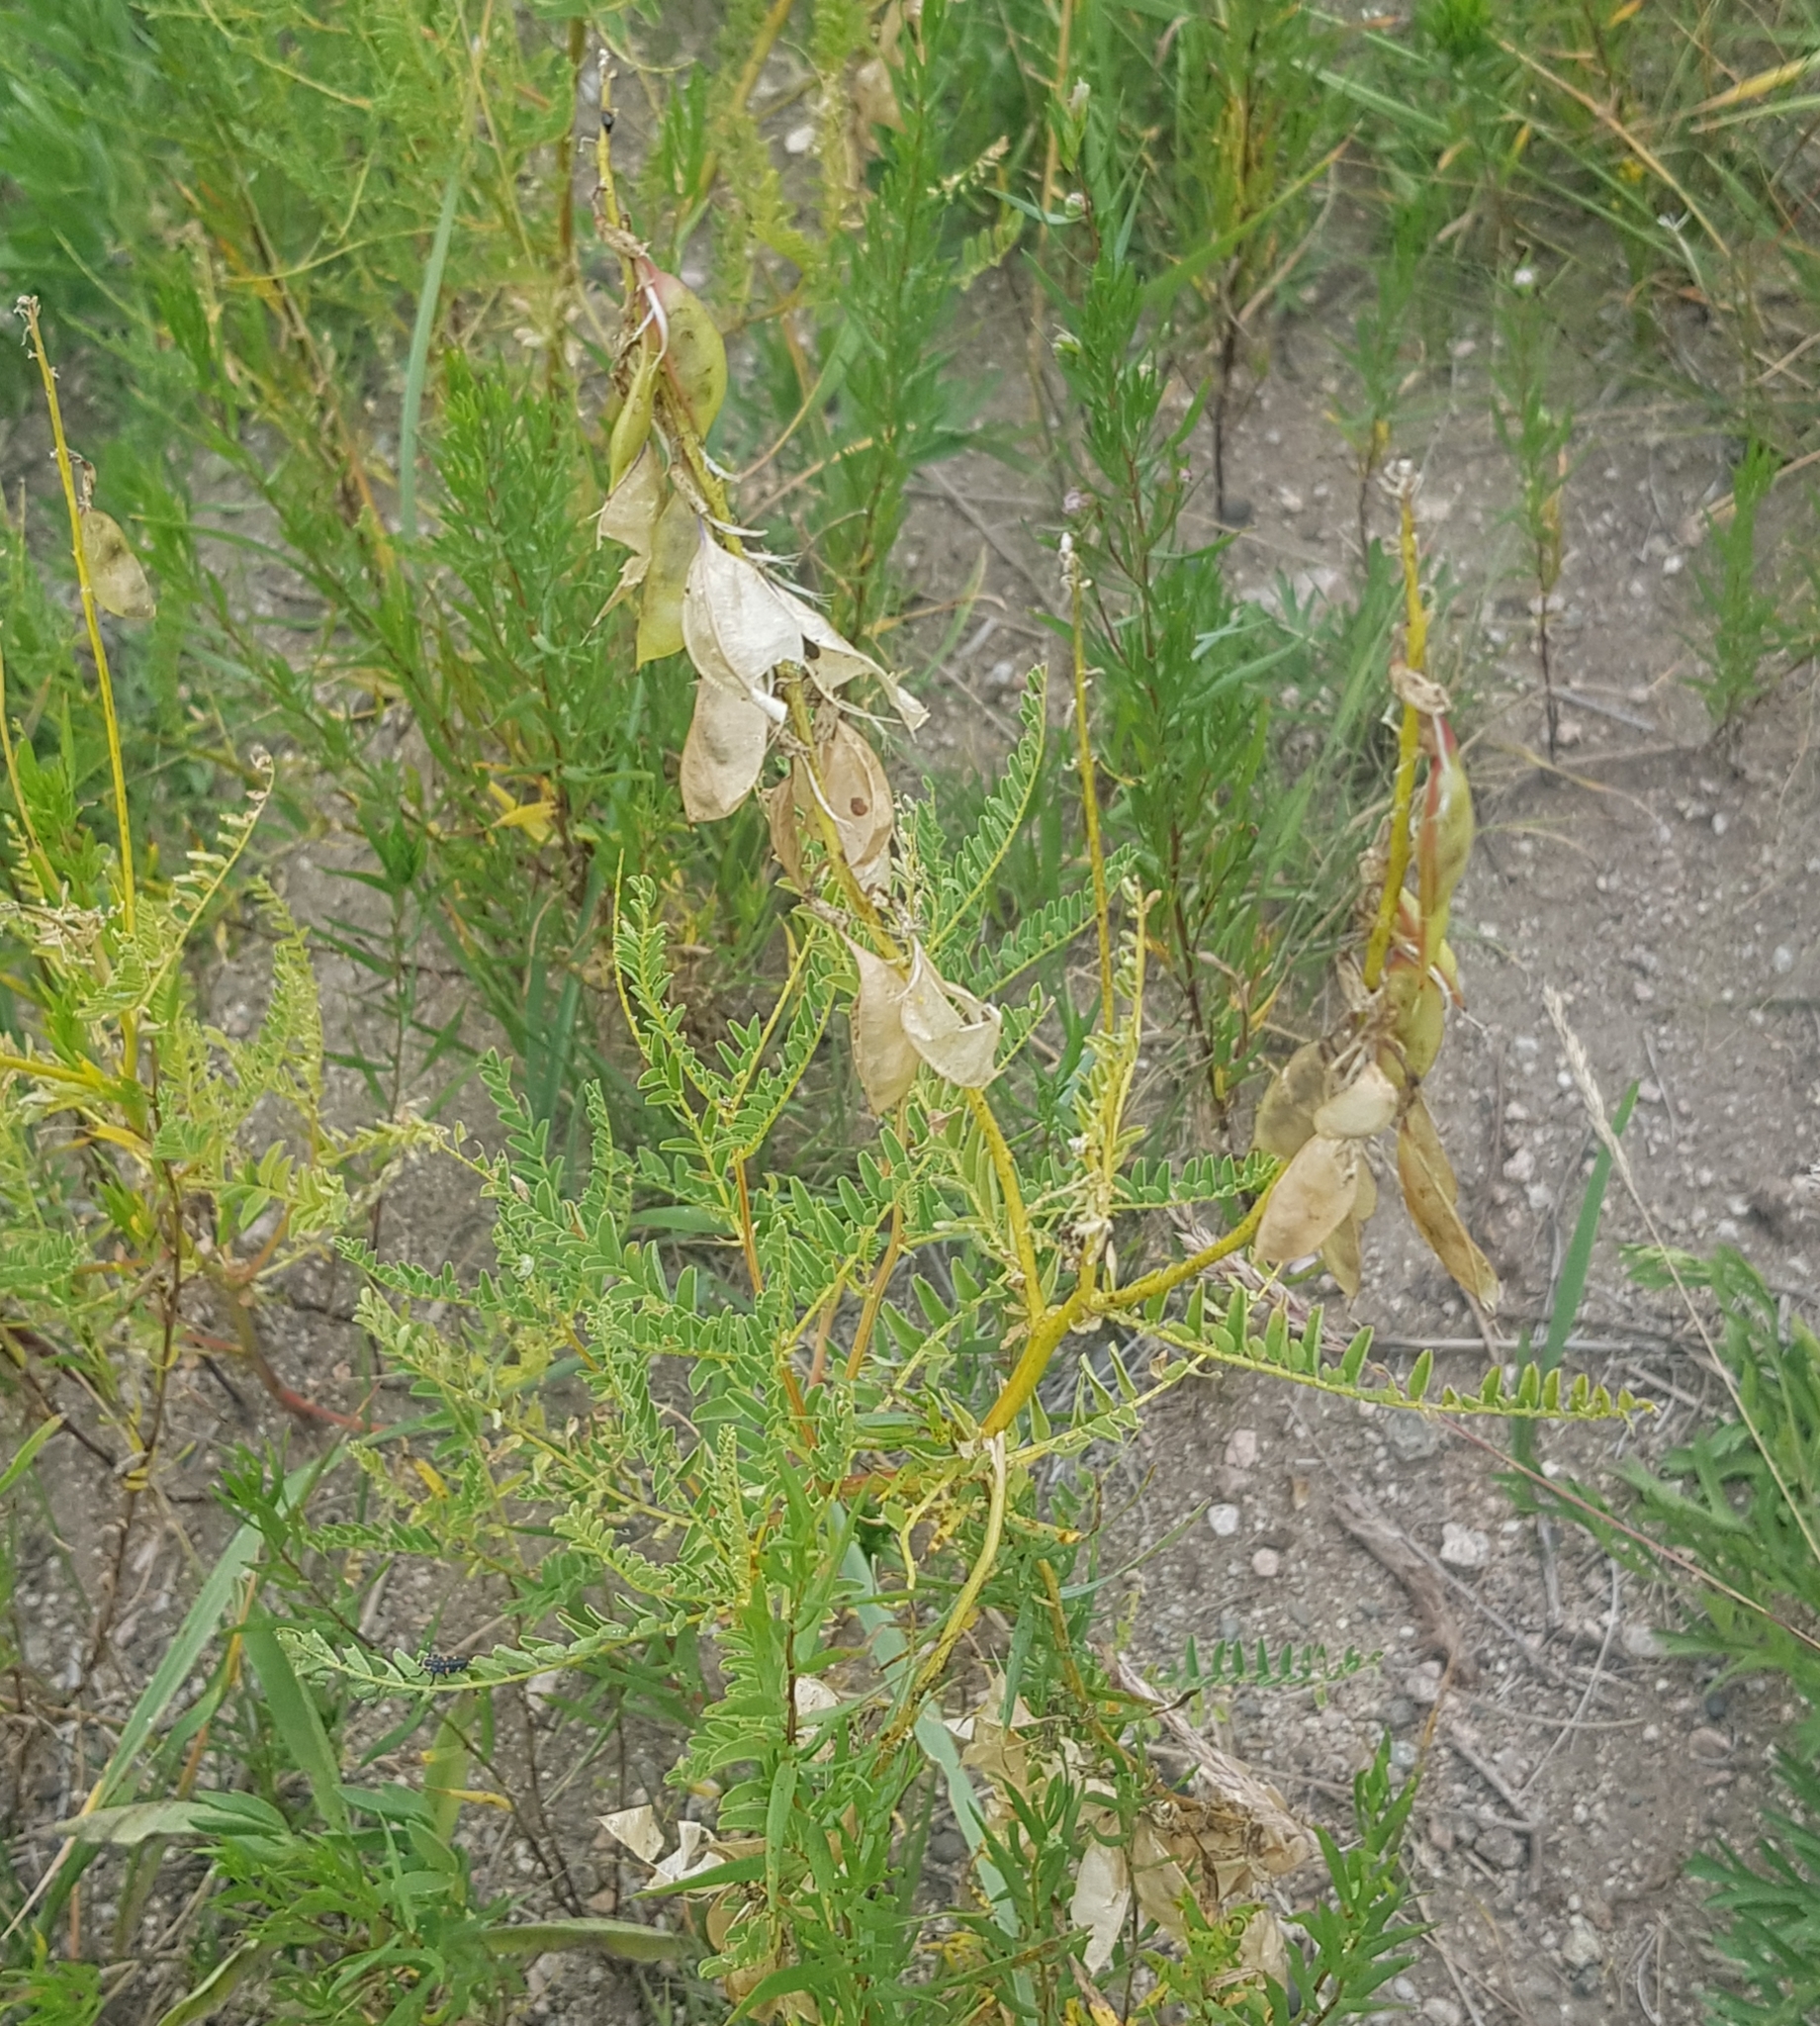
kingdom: Plantae
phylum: Tracheophyta
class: Magnoliopsida
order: Fabales
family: Fabaceae
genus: Astragalus
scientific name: Astragalus mongholicus
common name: Membranous milk-vetch
